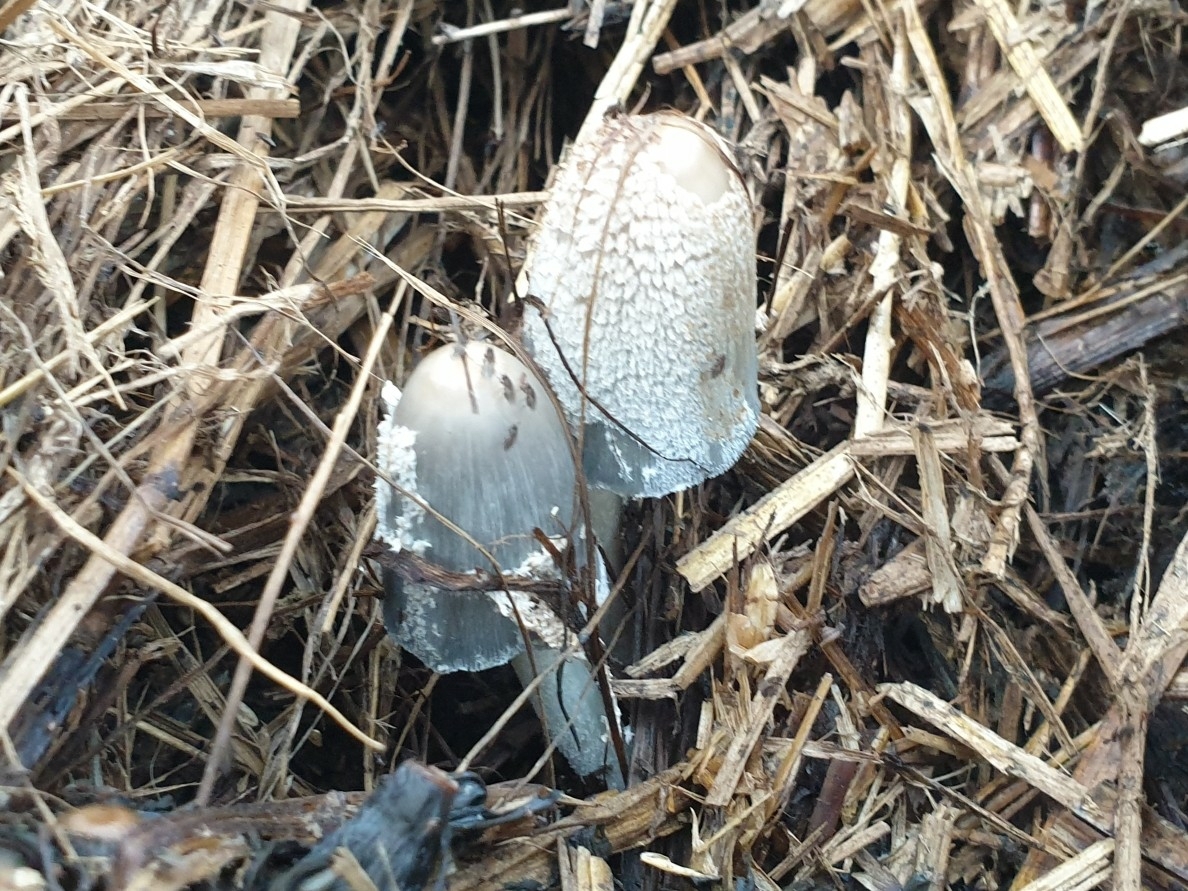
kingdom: Fungi
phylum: Basidiomycota
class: Agaricomycetes
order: Agaricales
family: Psathyrellaceae
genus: Coprinopsis
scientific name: Coprinopsis cinerea
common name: Grey inkcap
